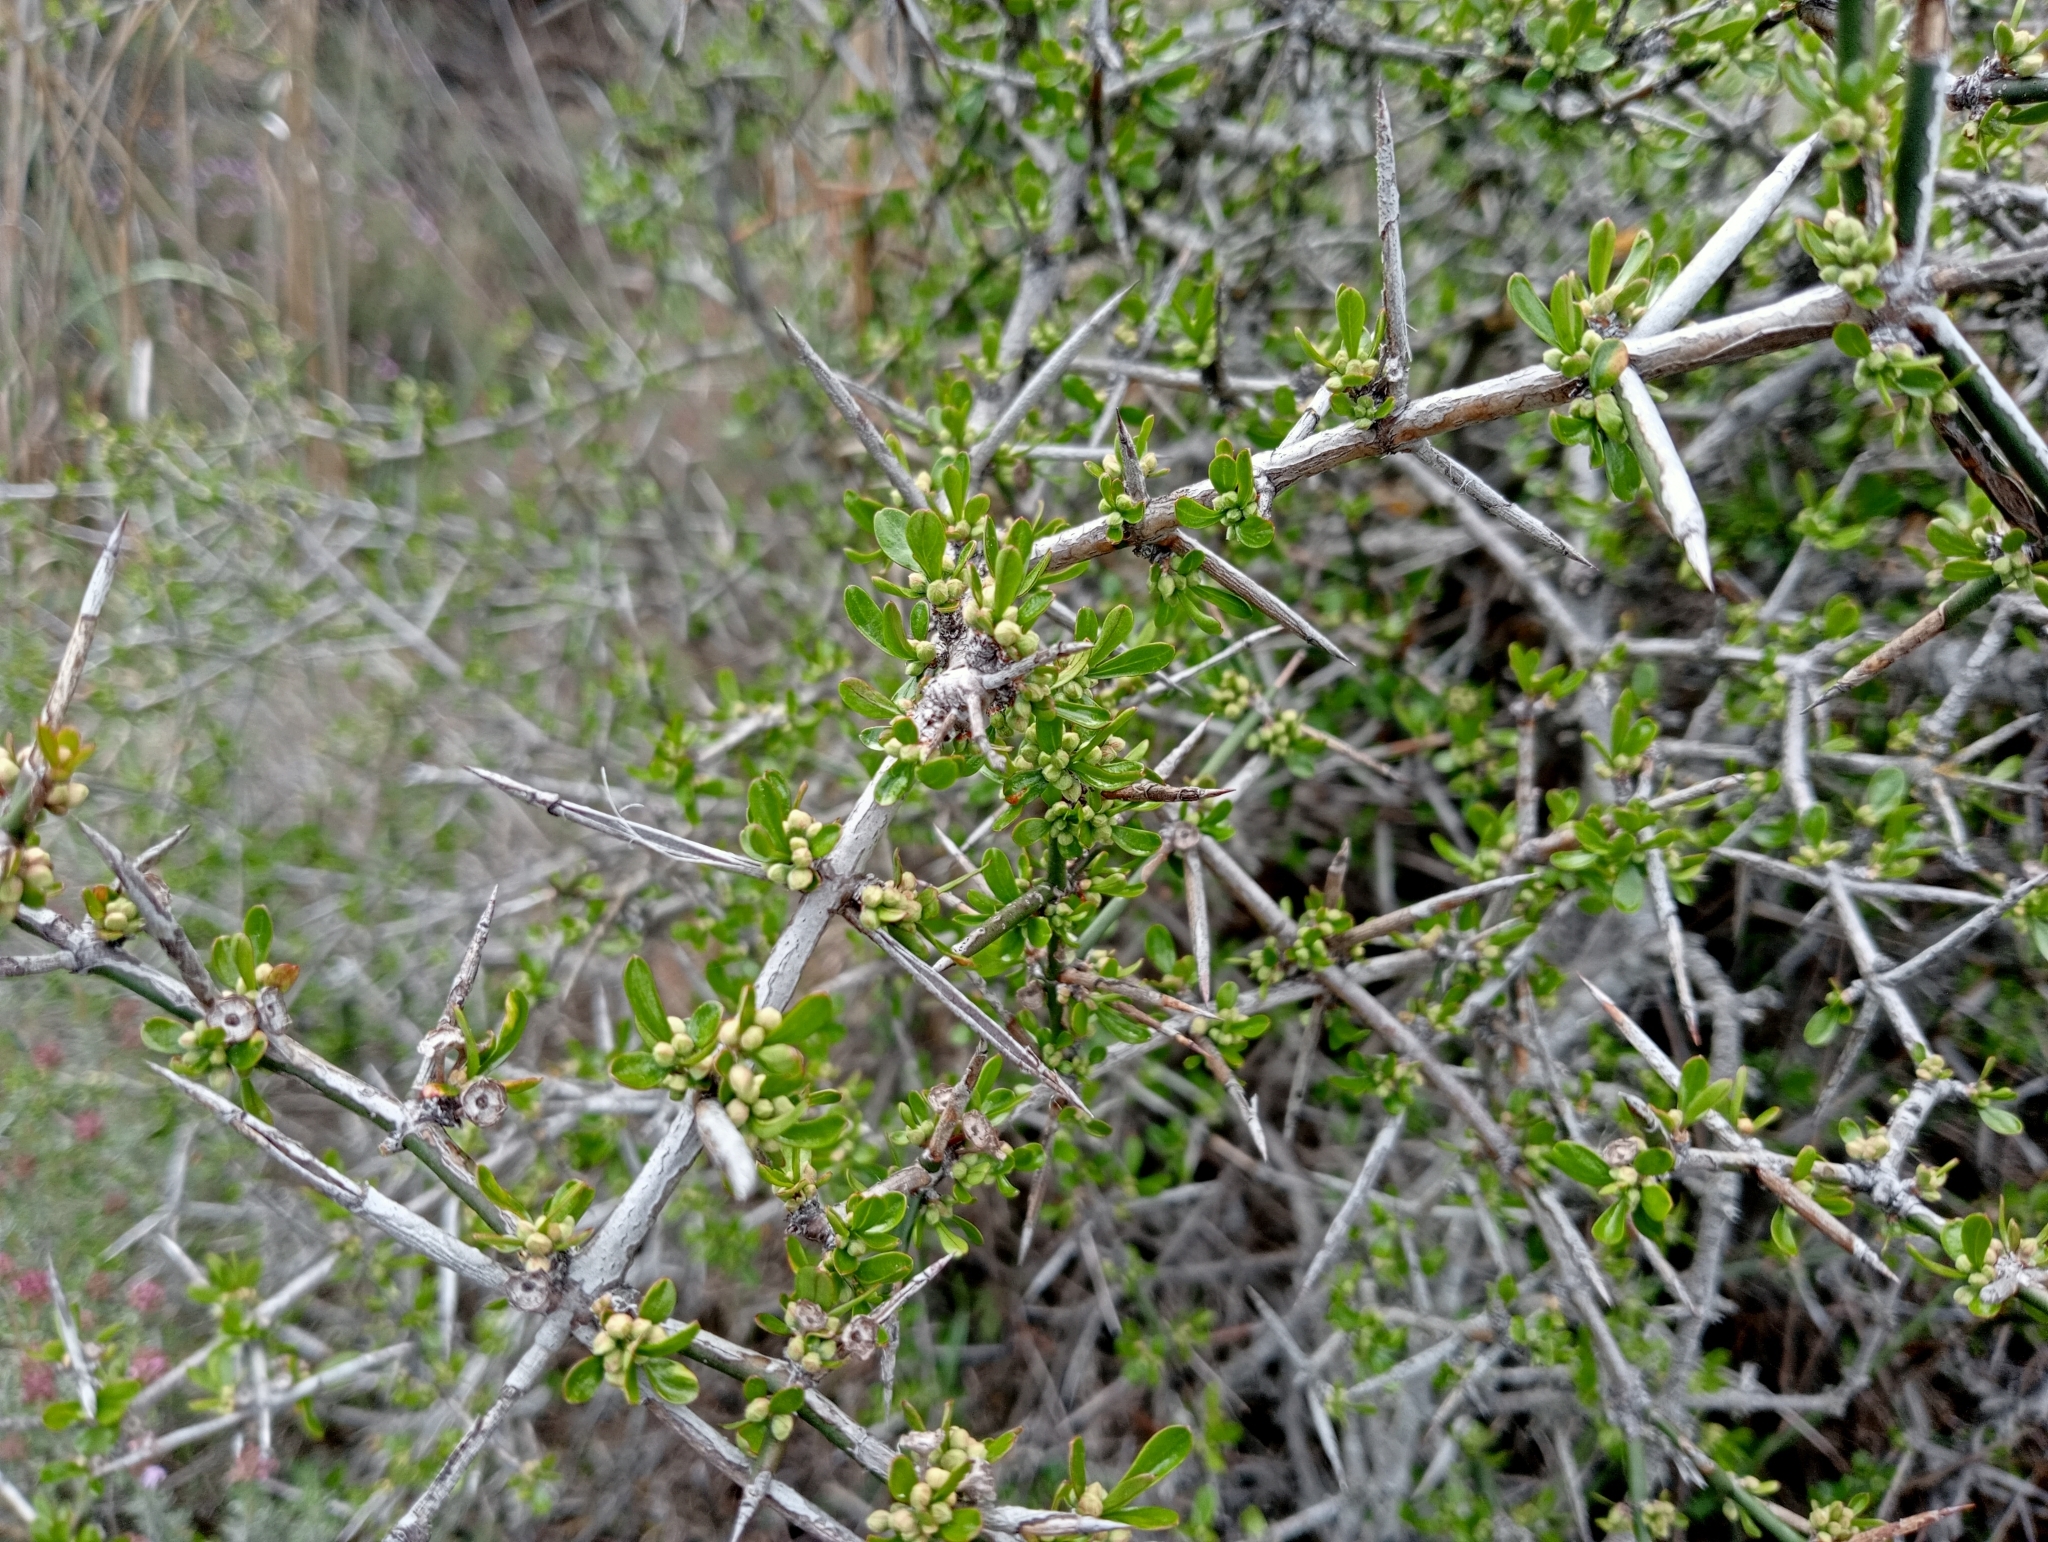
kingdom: Plantae
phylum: Tracheophyta
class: Magnoliopsida
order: Rosales
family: Rhamnaceae
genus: Discaria
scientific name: Discaria toumatou
